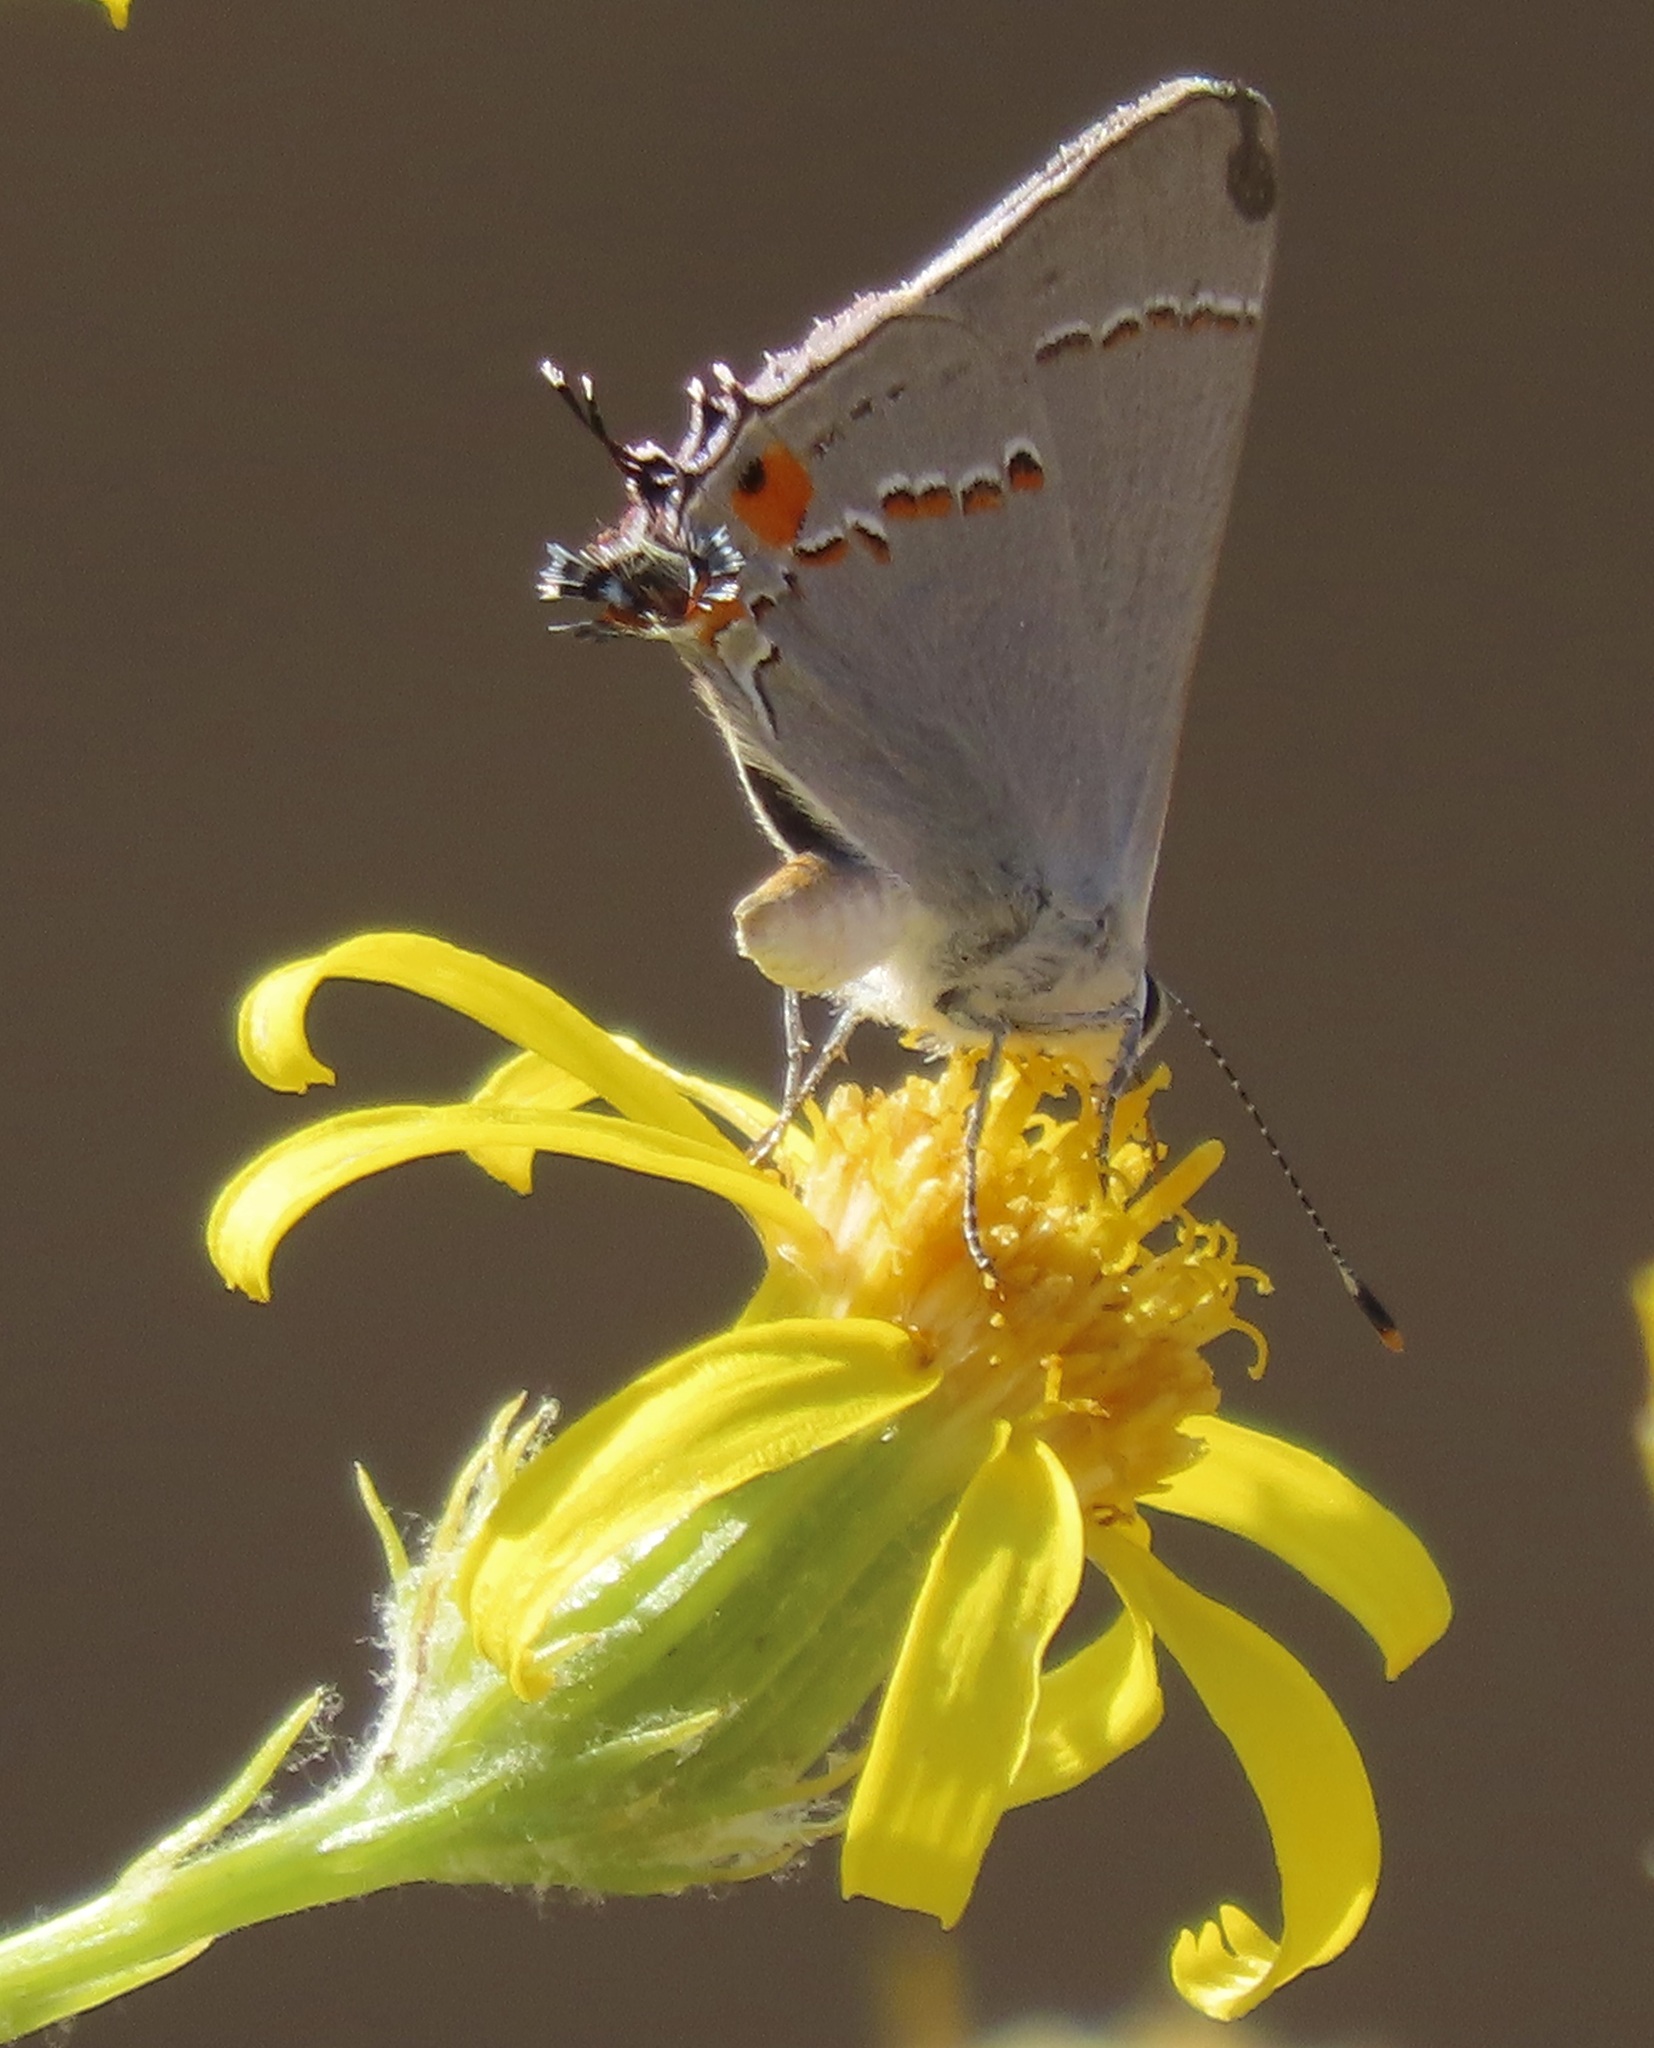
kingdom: Animalia
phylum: Arthropoda
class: Insecta
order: Lepidoptera
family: Lycaenidae
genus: Strymon
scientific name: Strymon melinus
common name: Gray hairstreak
